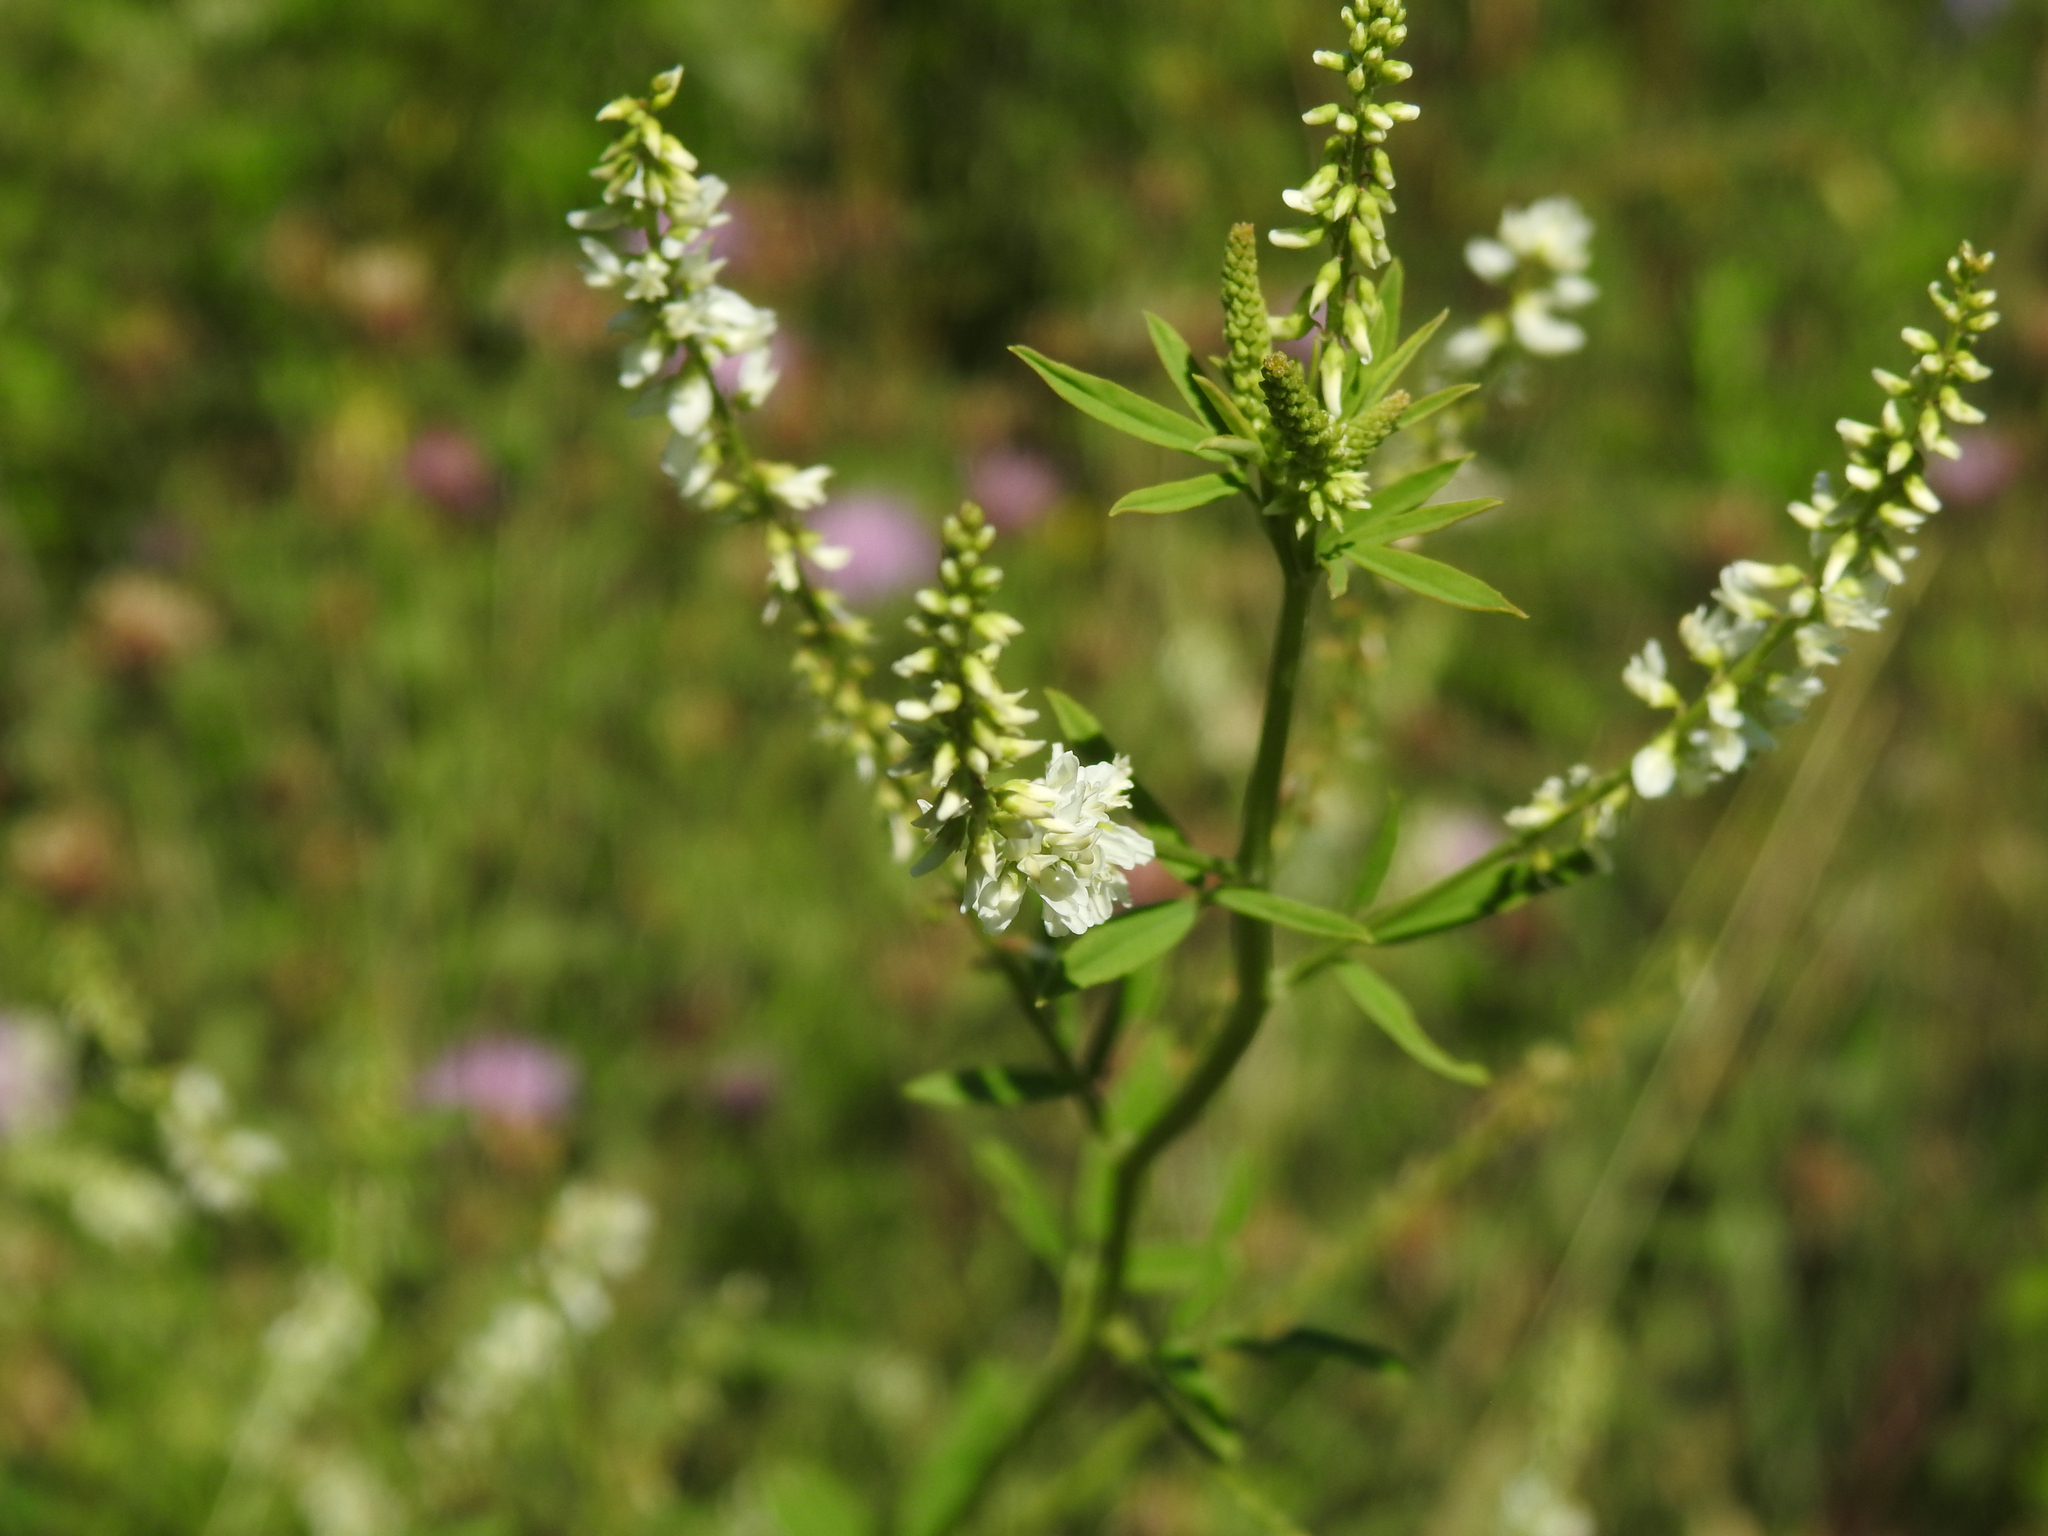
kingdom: Plantae
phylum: Tracheophyta
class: Magnoliopsida
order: Fabales
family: Fabaceae
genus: Melilotus
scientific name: Melilotus albus
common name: White melilot
